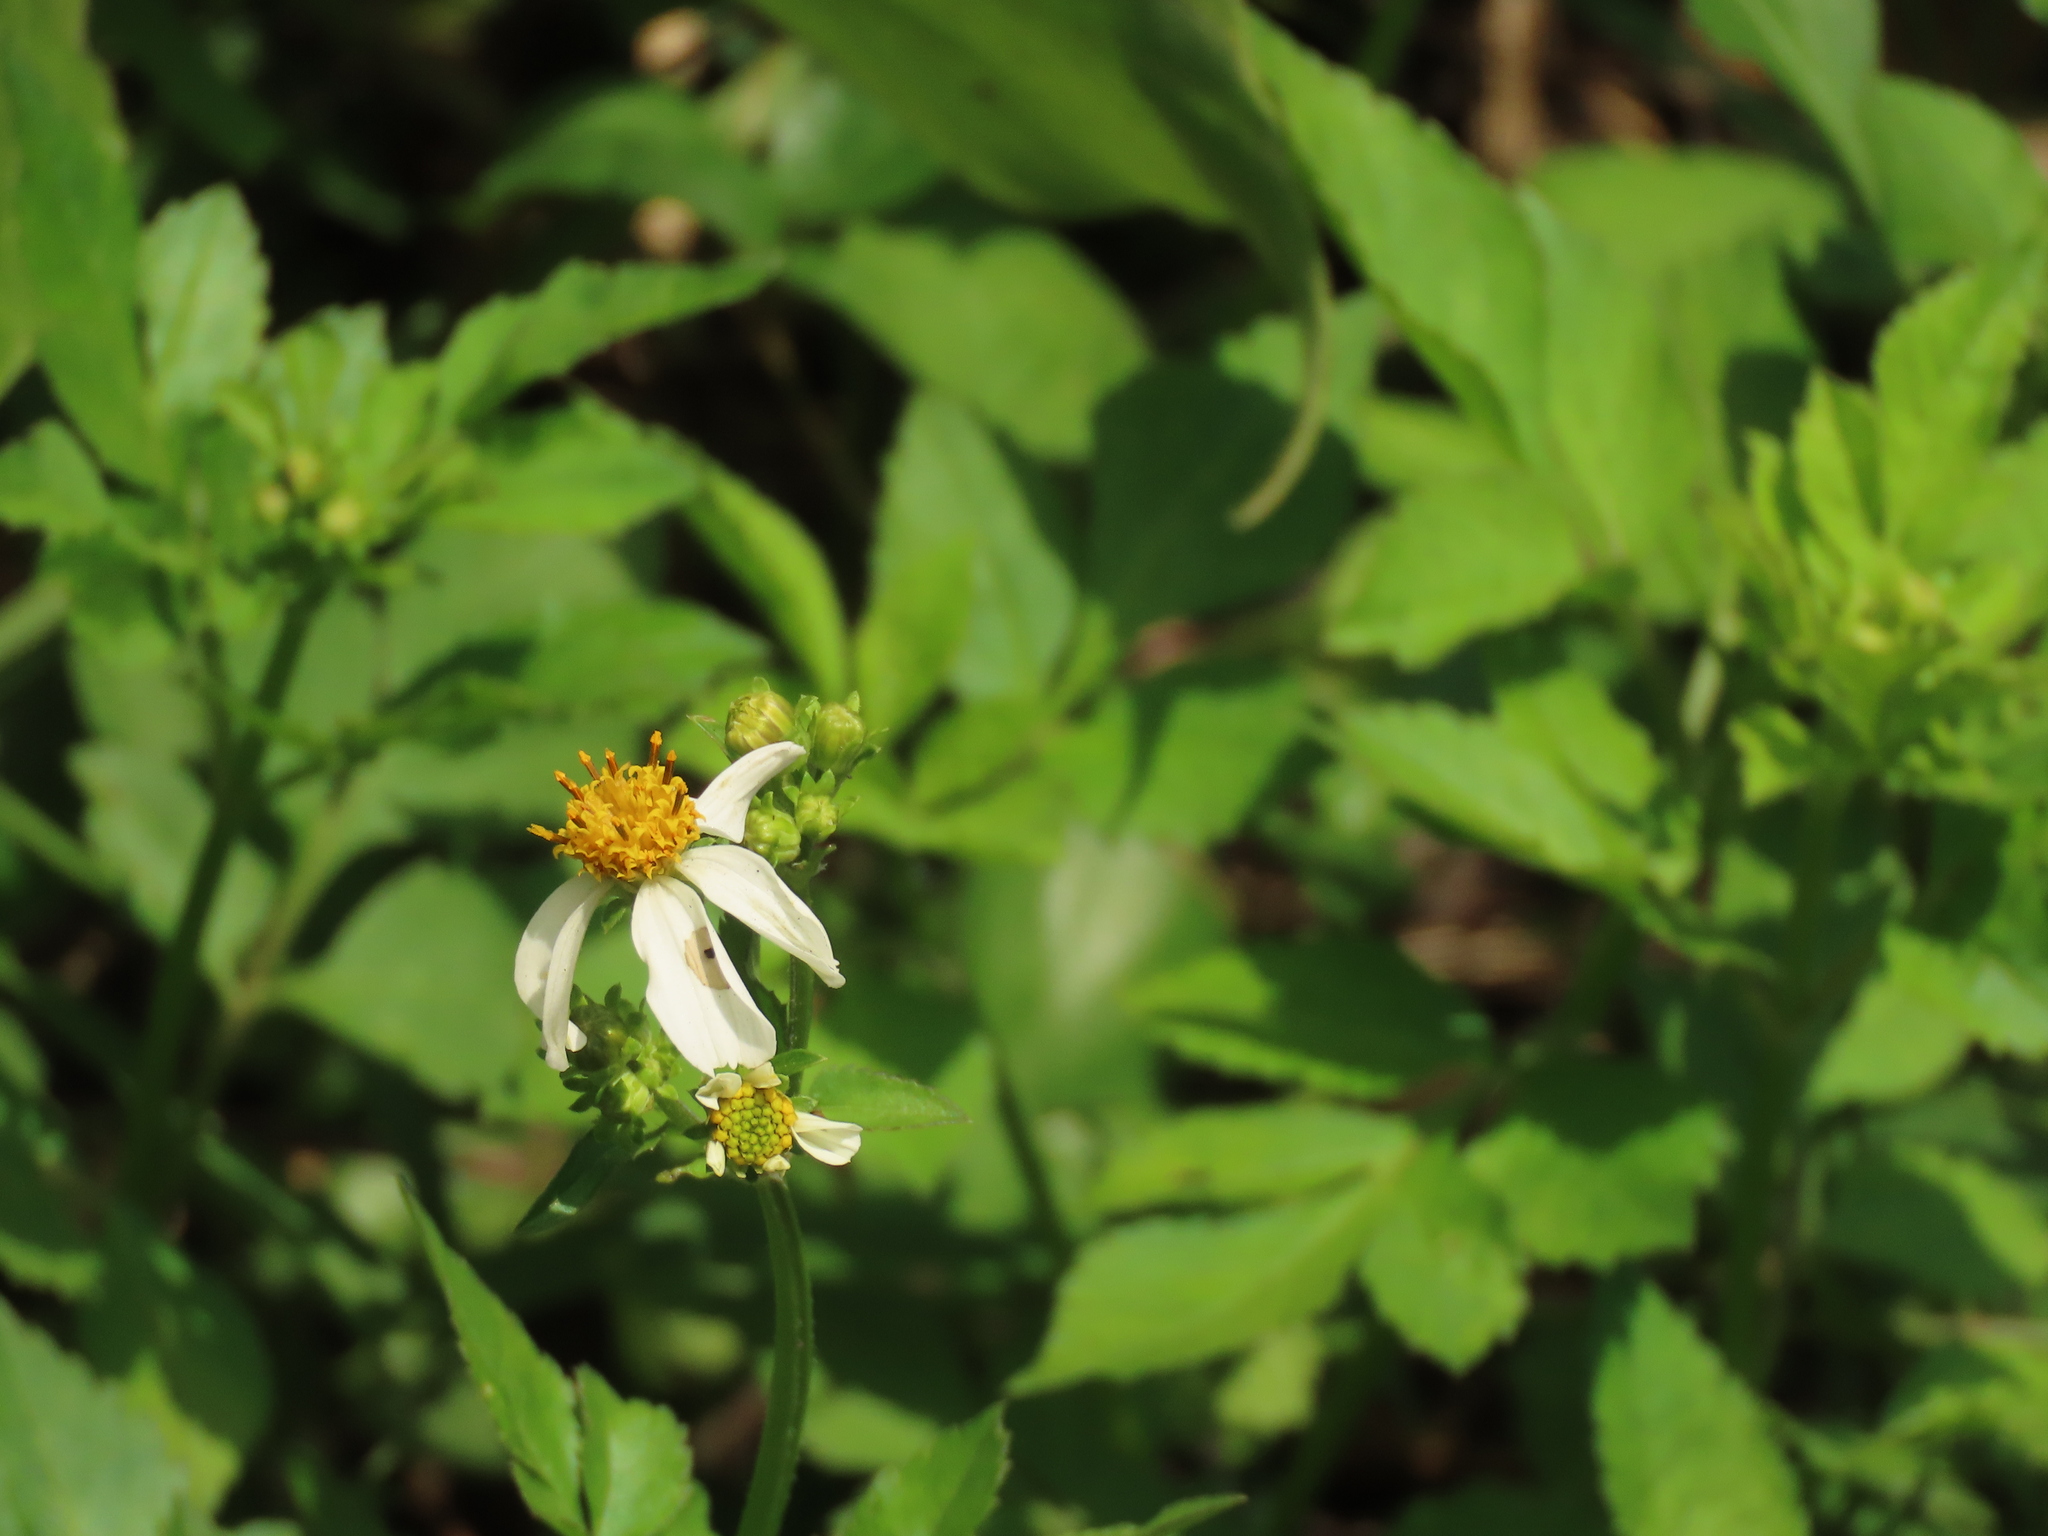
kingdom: Plantae
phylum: Tracheophyta
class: Magnoliopsida
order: Asterales
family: Asteraceae
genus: Bidens
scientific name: Bidens alba
